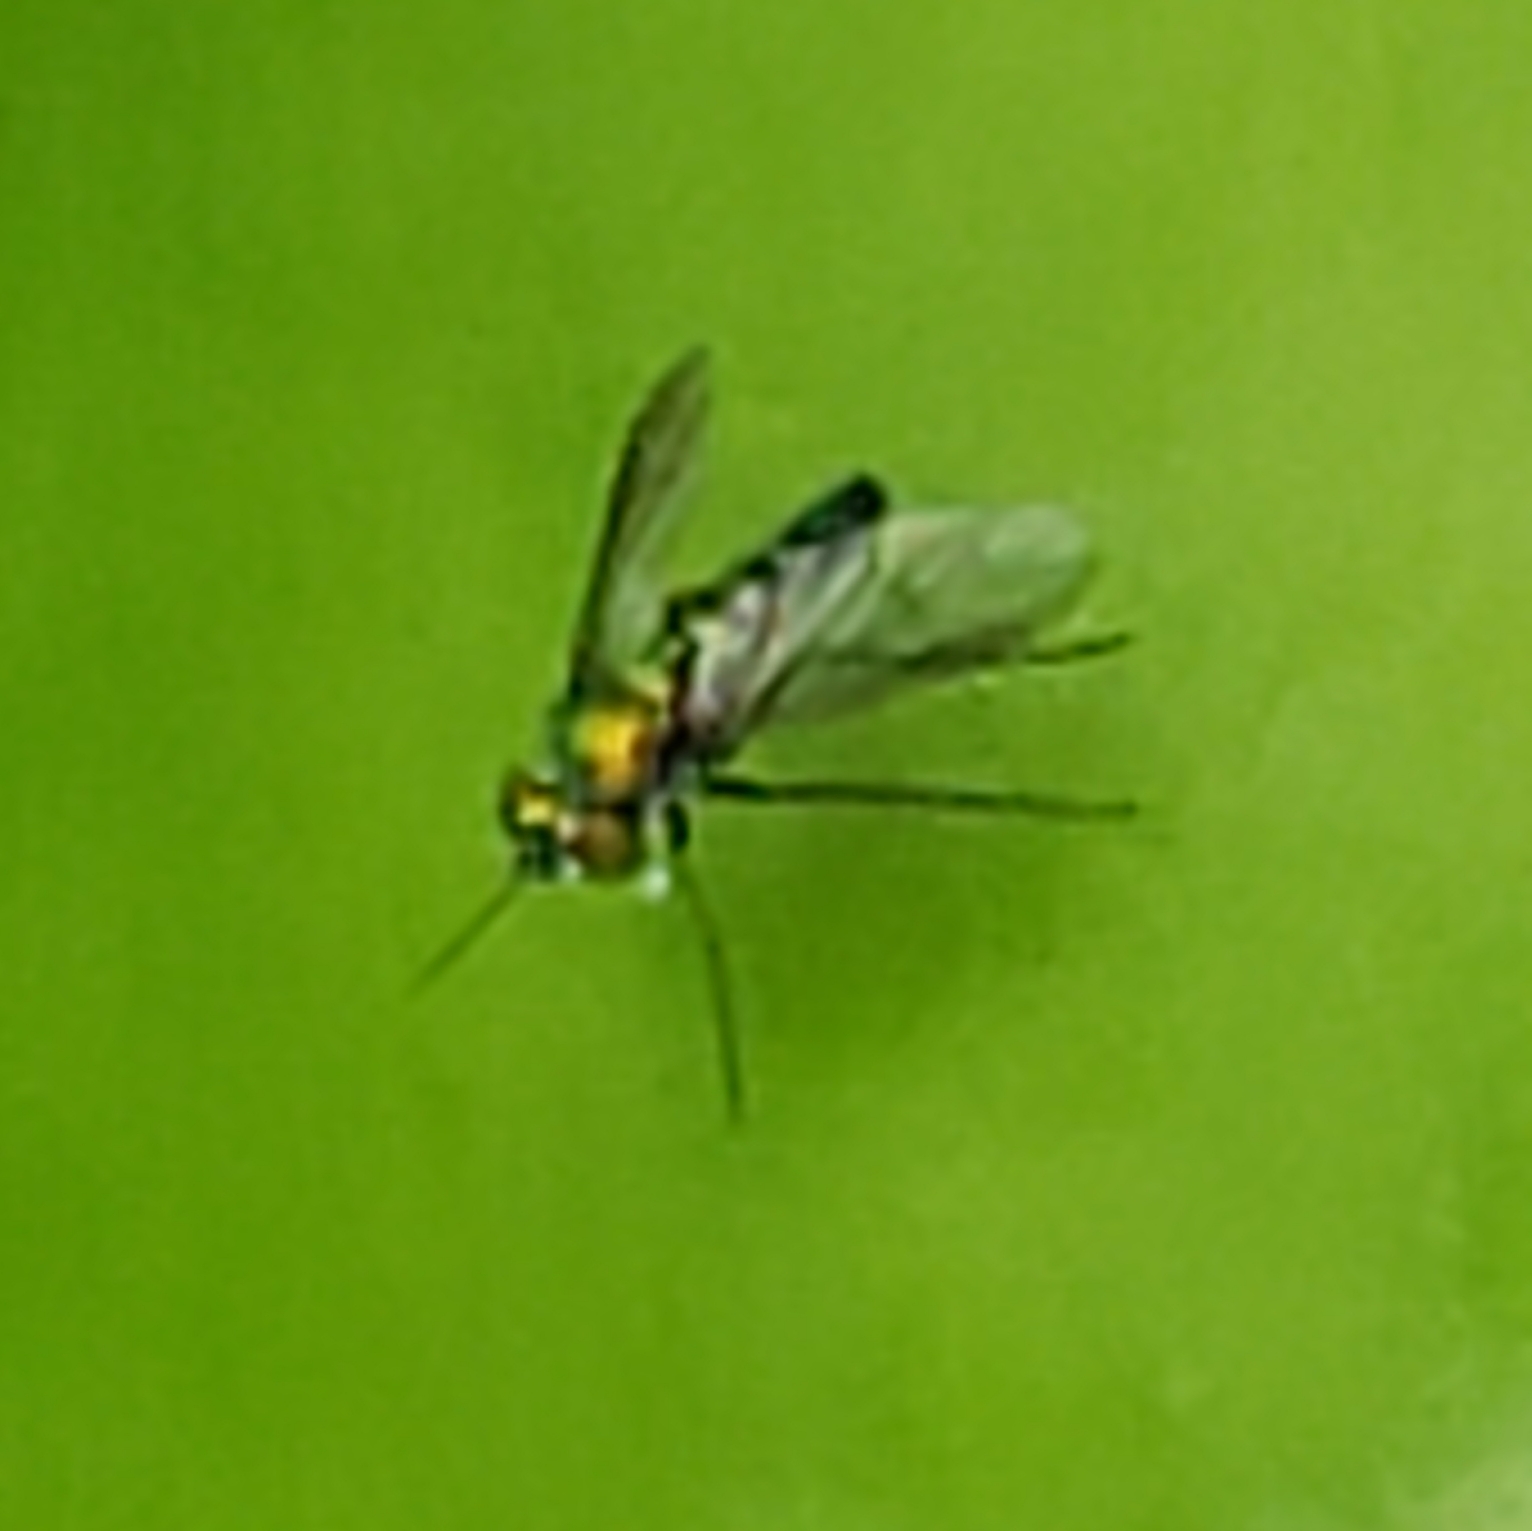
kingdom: Animalia
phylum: Arthropoda
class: Insecta
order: Diptera
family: Dolichopodidae
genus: Condylostylus
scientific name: Condylostylus longicornis
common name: Long-legged fly
